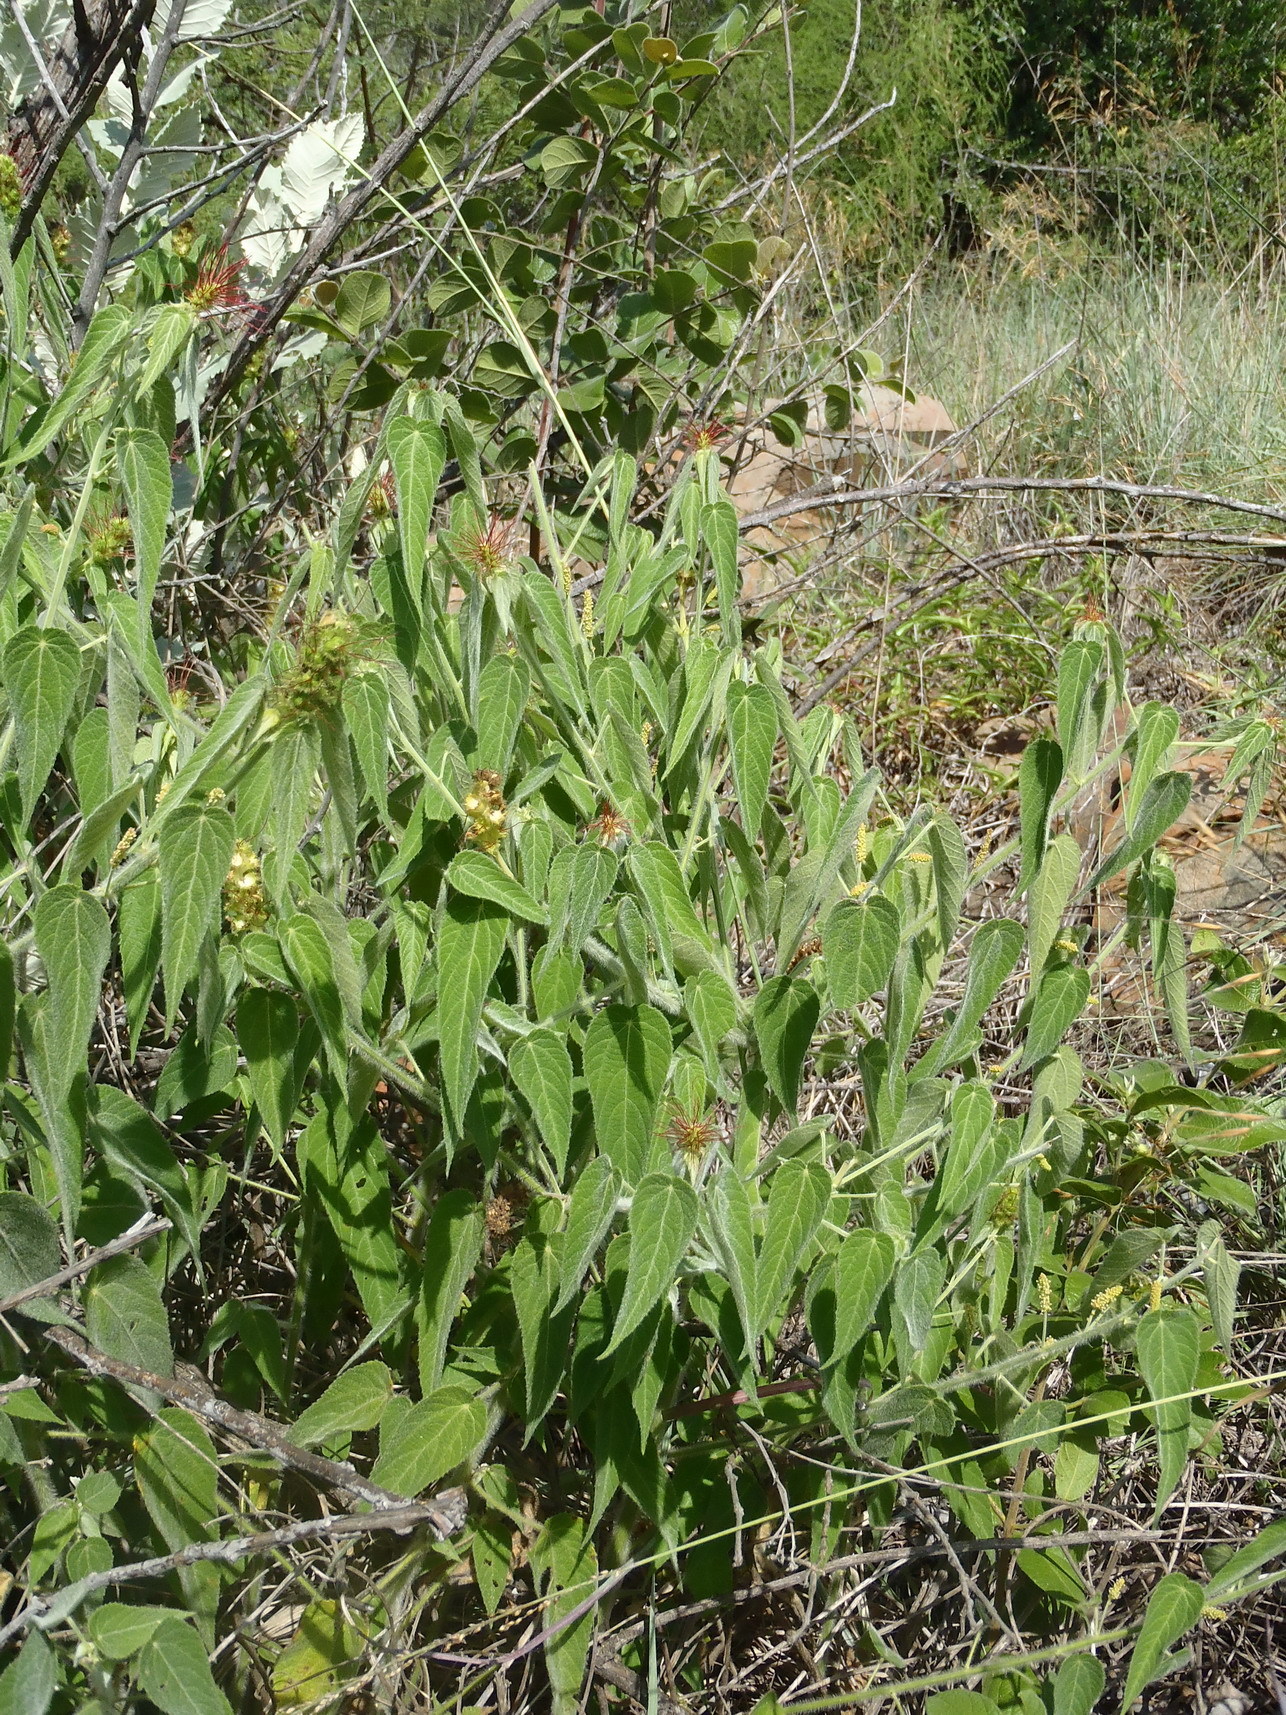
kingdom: Plantae
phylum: Tracheophyta
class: Magnoliopsida
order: Malpighiales
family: Euphorbiaceae
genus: Acalypha
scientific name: Acalypha petiolaris
